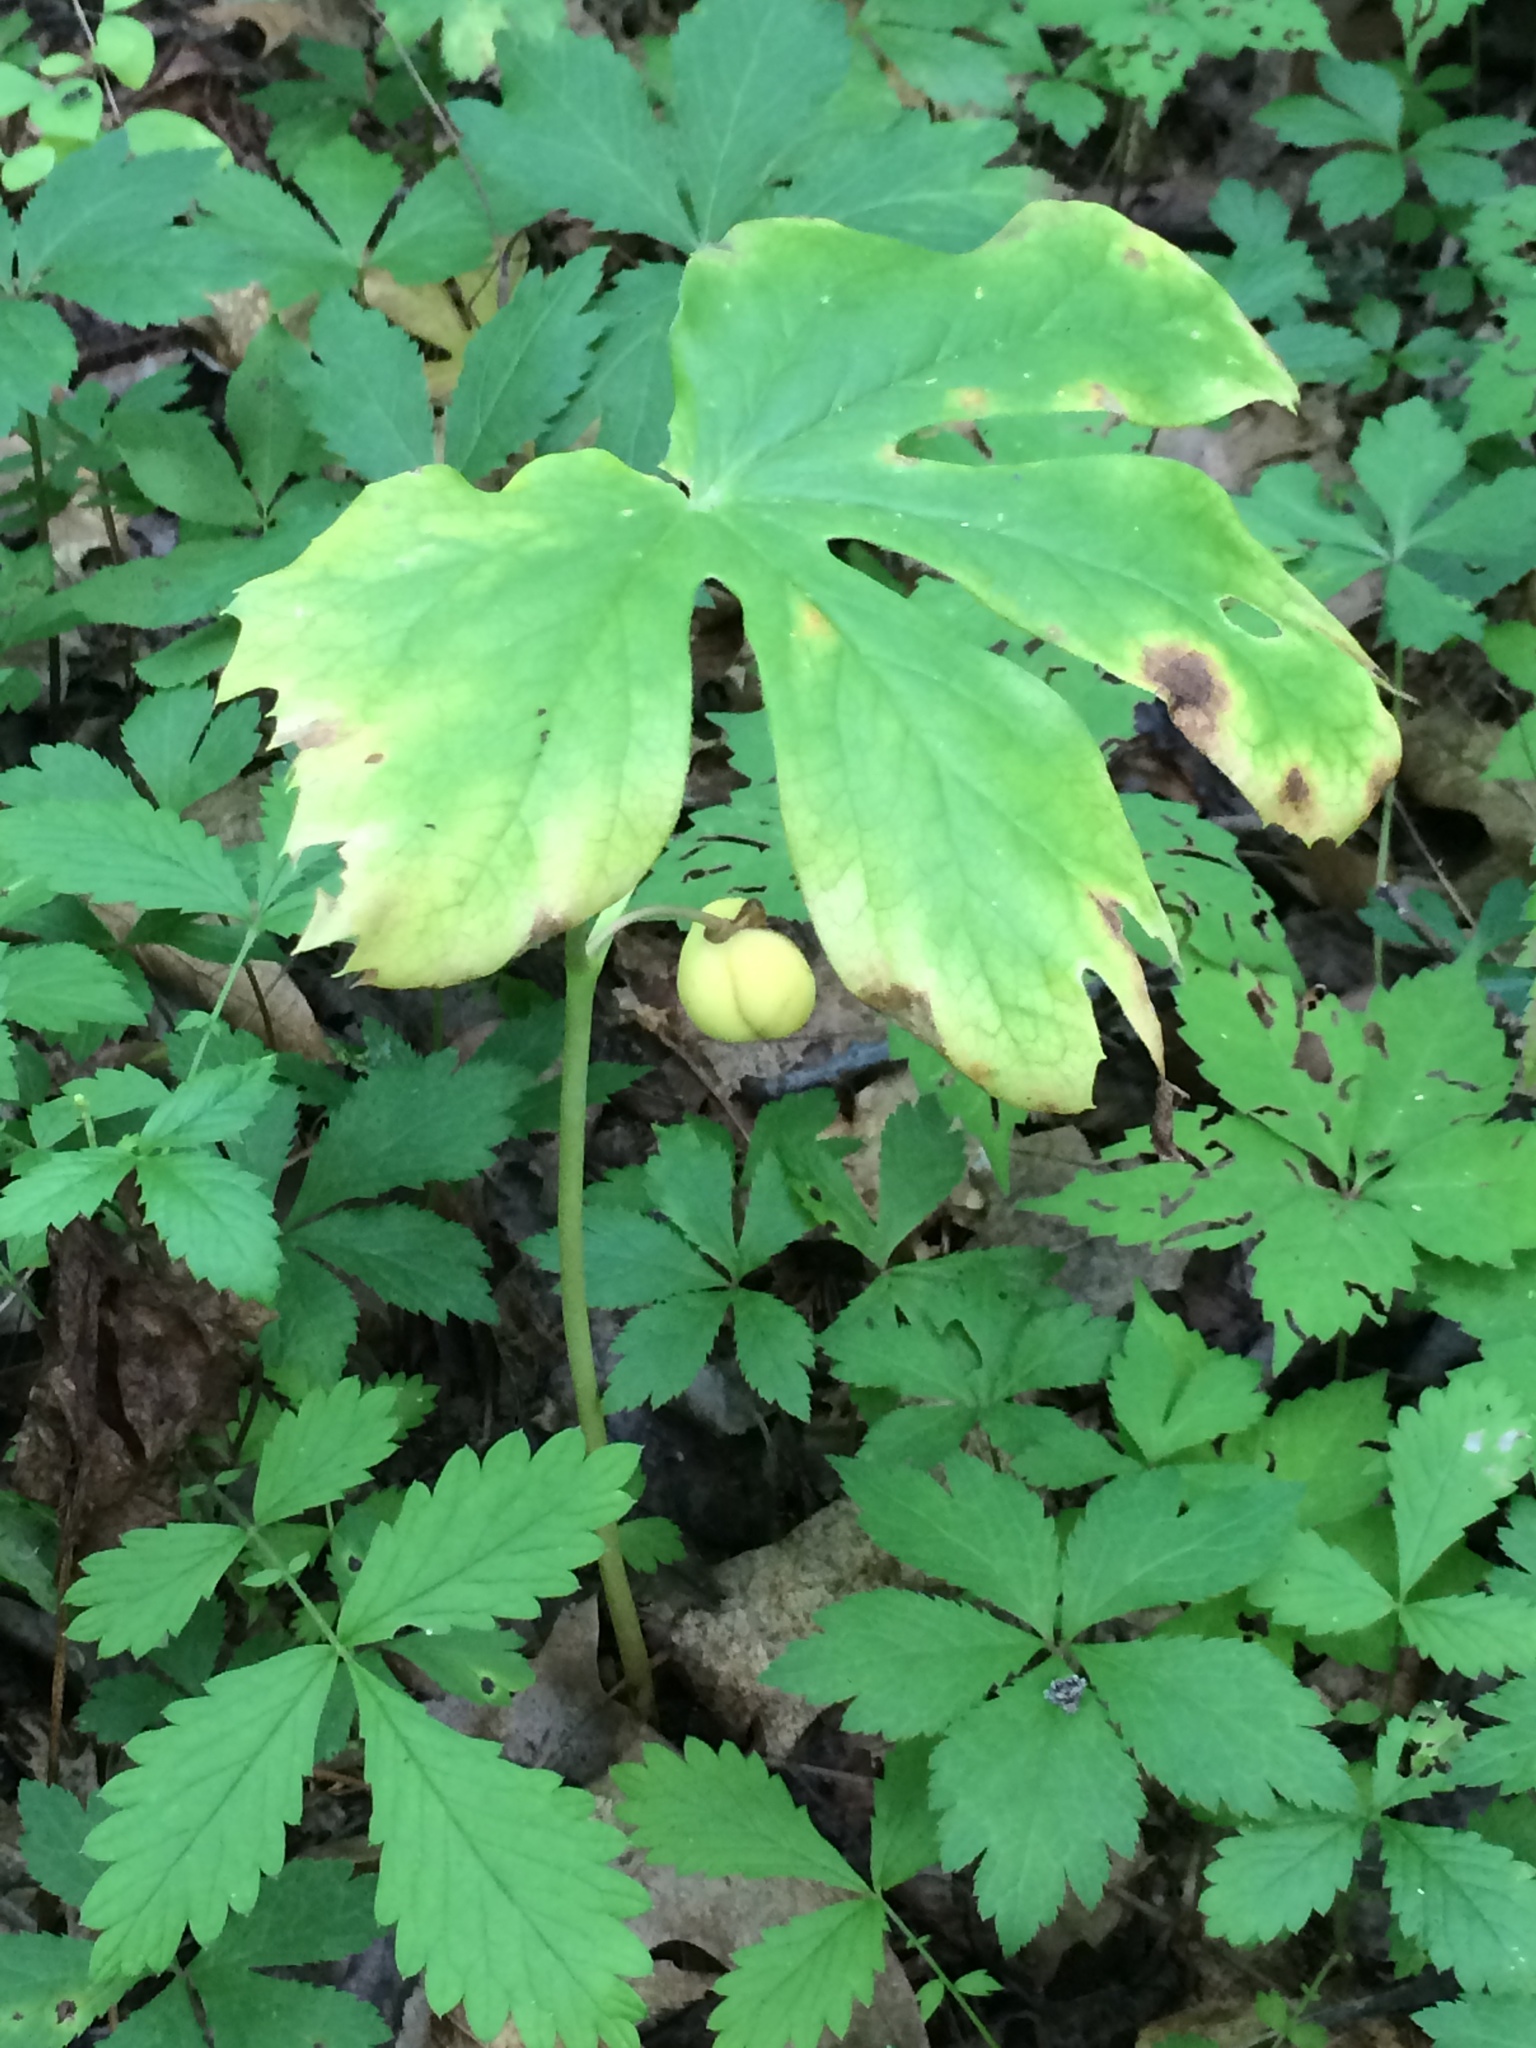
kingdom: Plantae
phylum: Tracheophyta
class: Magnoliopsida
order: Ranunculales
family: Berberidaceae
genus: Podophyllum
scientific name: Podophyllum peltatum
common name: Wild mandrake
